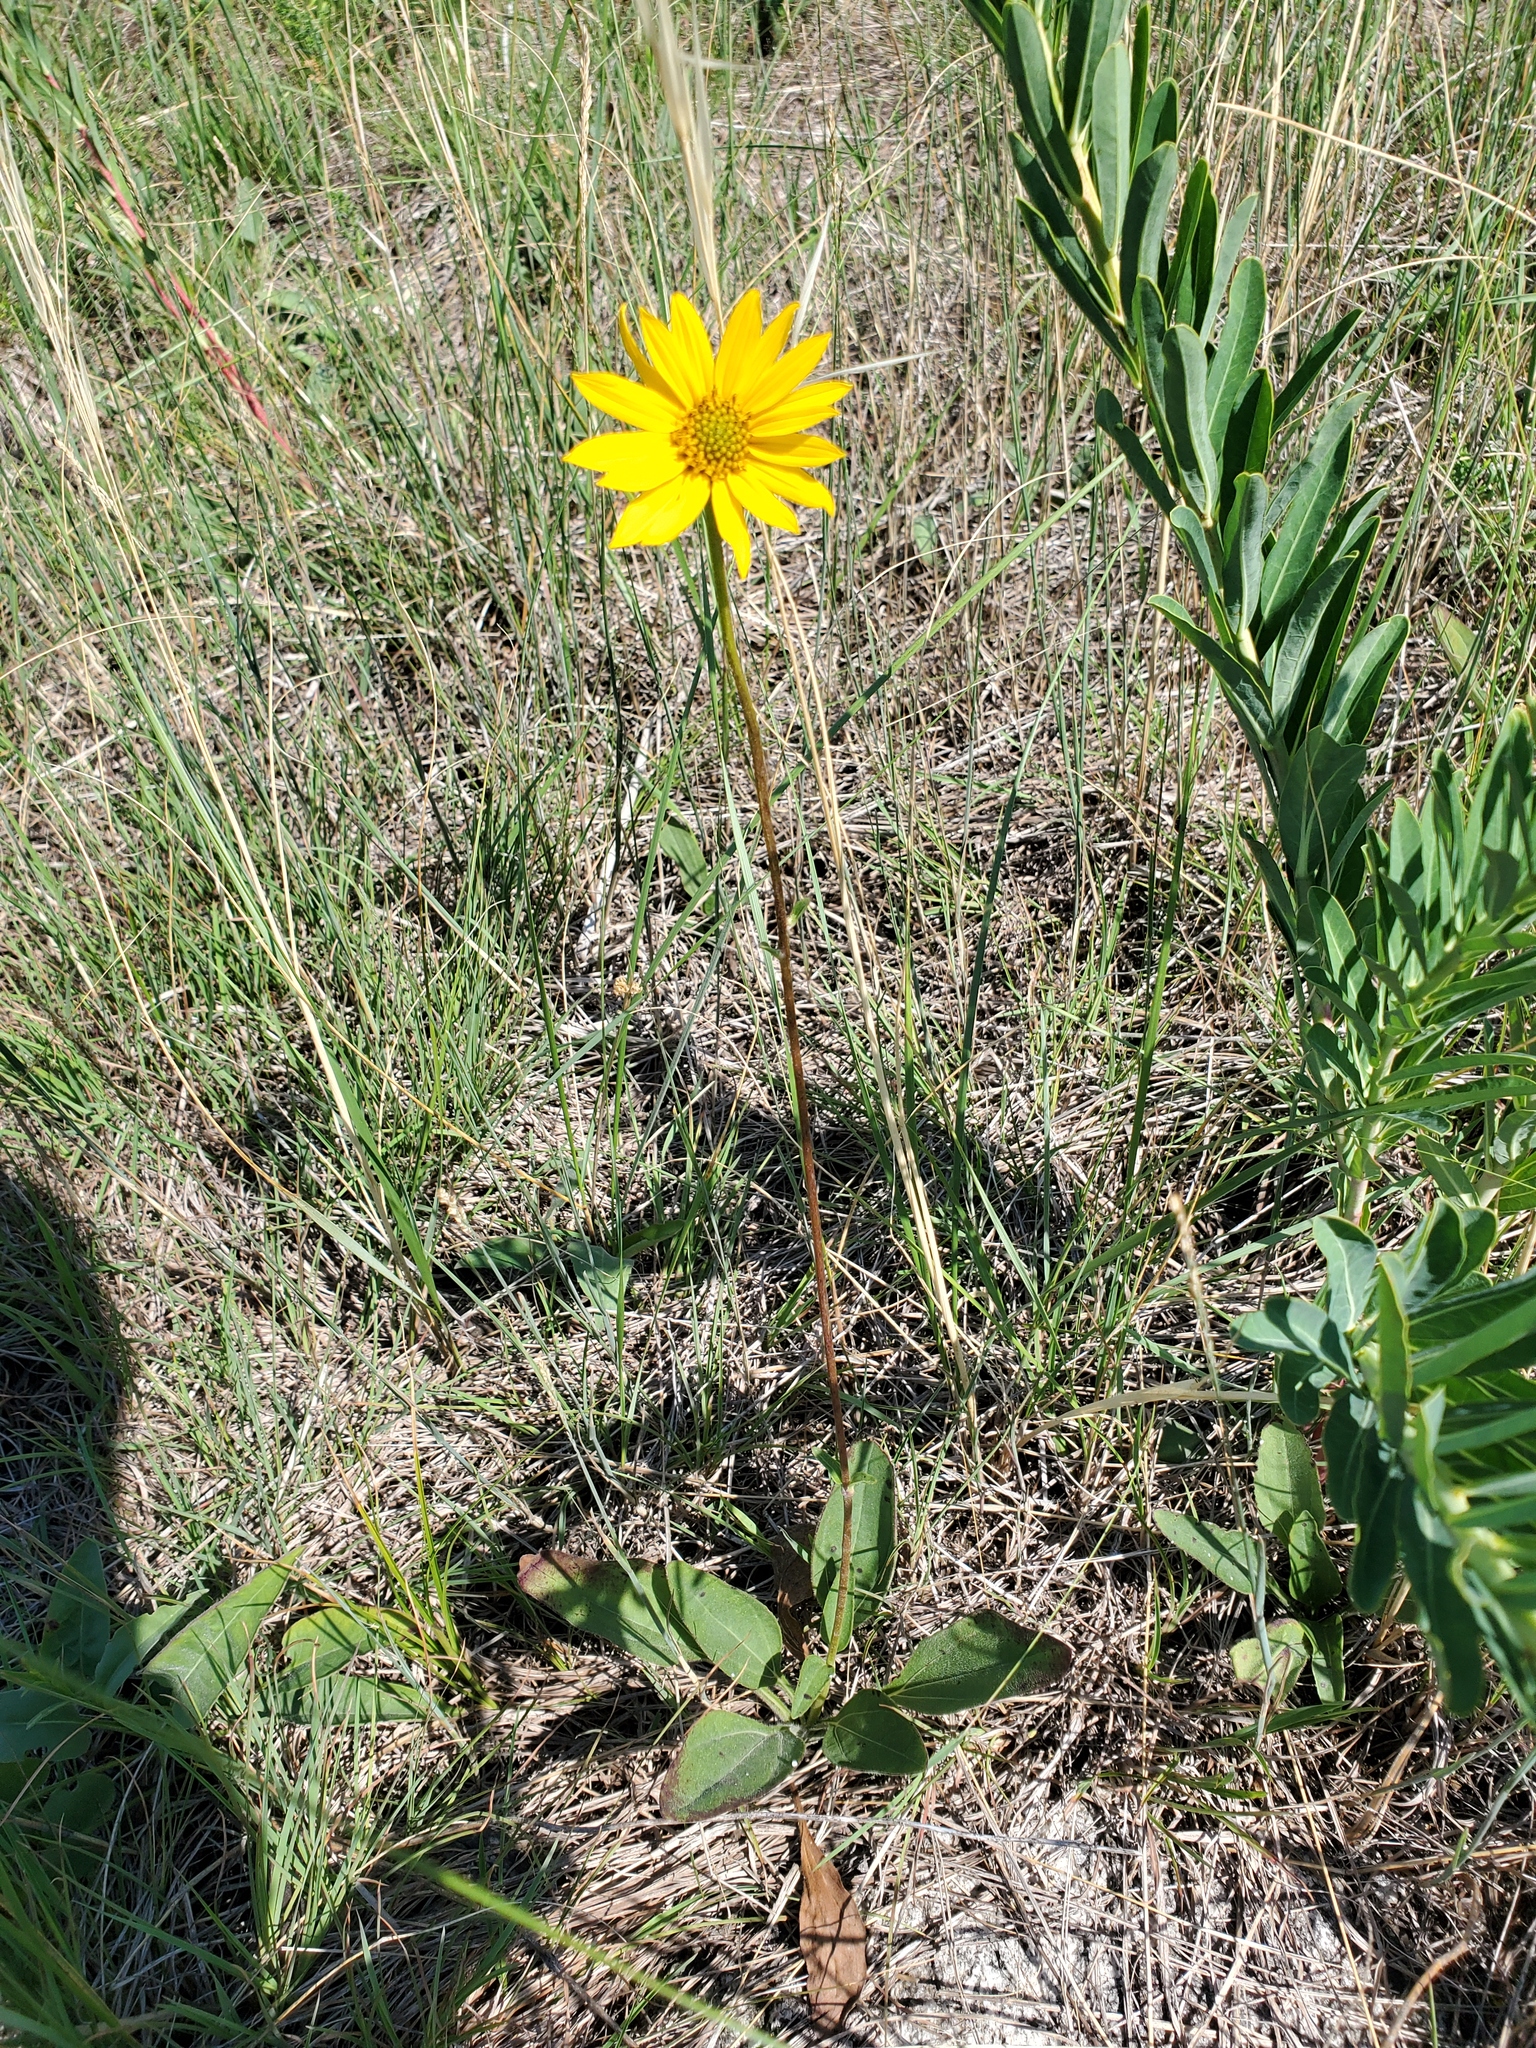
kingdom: Plantae
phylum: Tracheophyta
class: Magnoliopsida
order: Asterales
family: Asteraceae
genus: Helianthus
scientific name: Helianthus occidentalis
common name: Western sunflower
